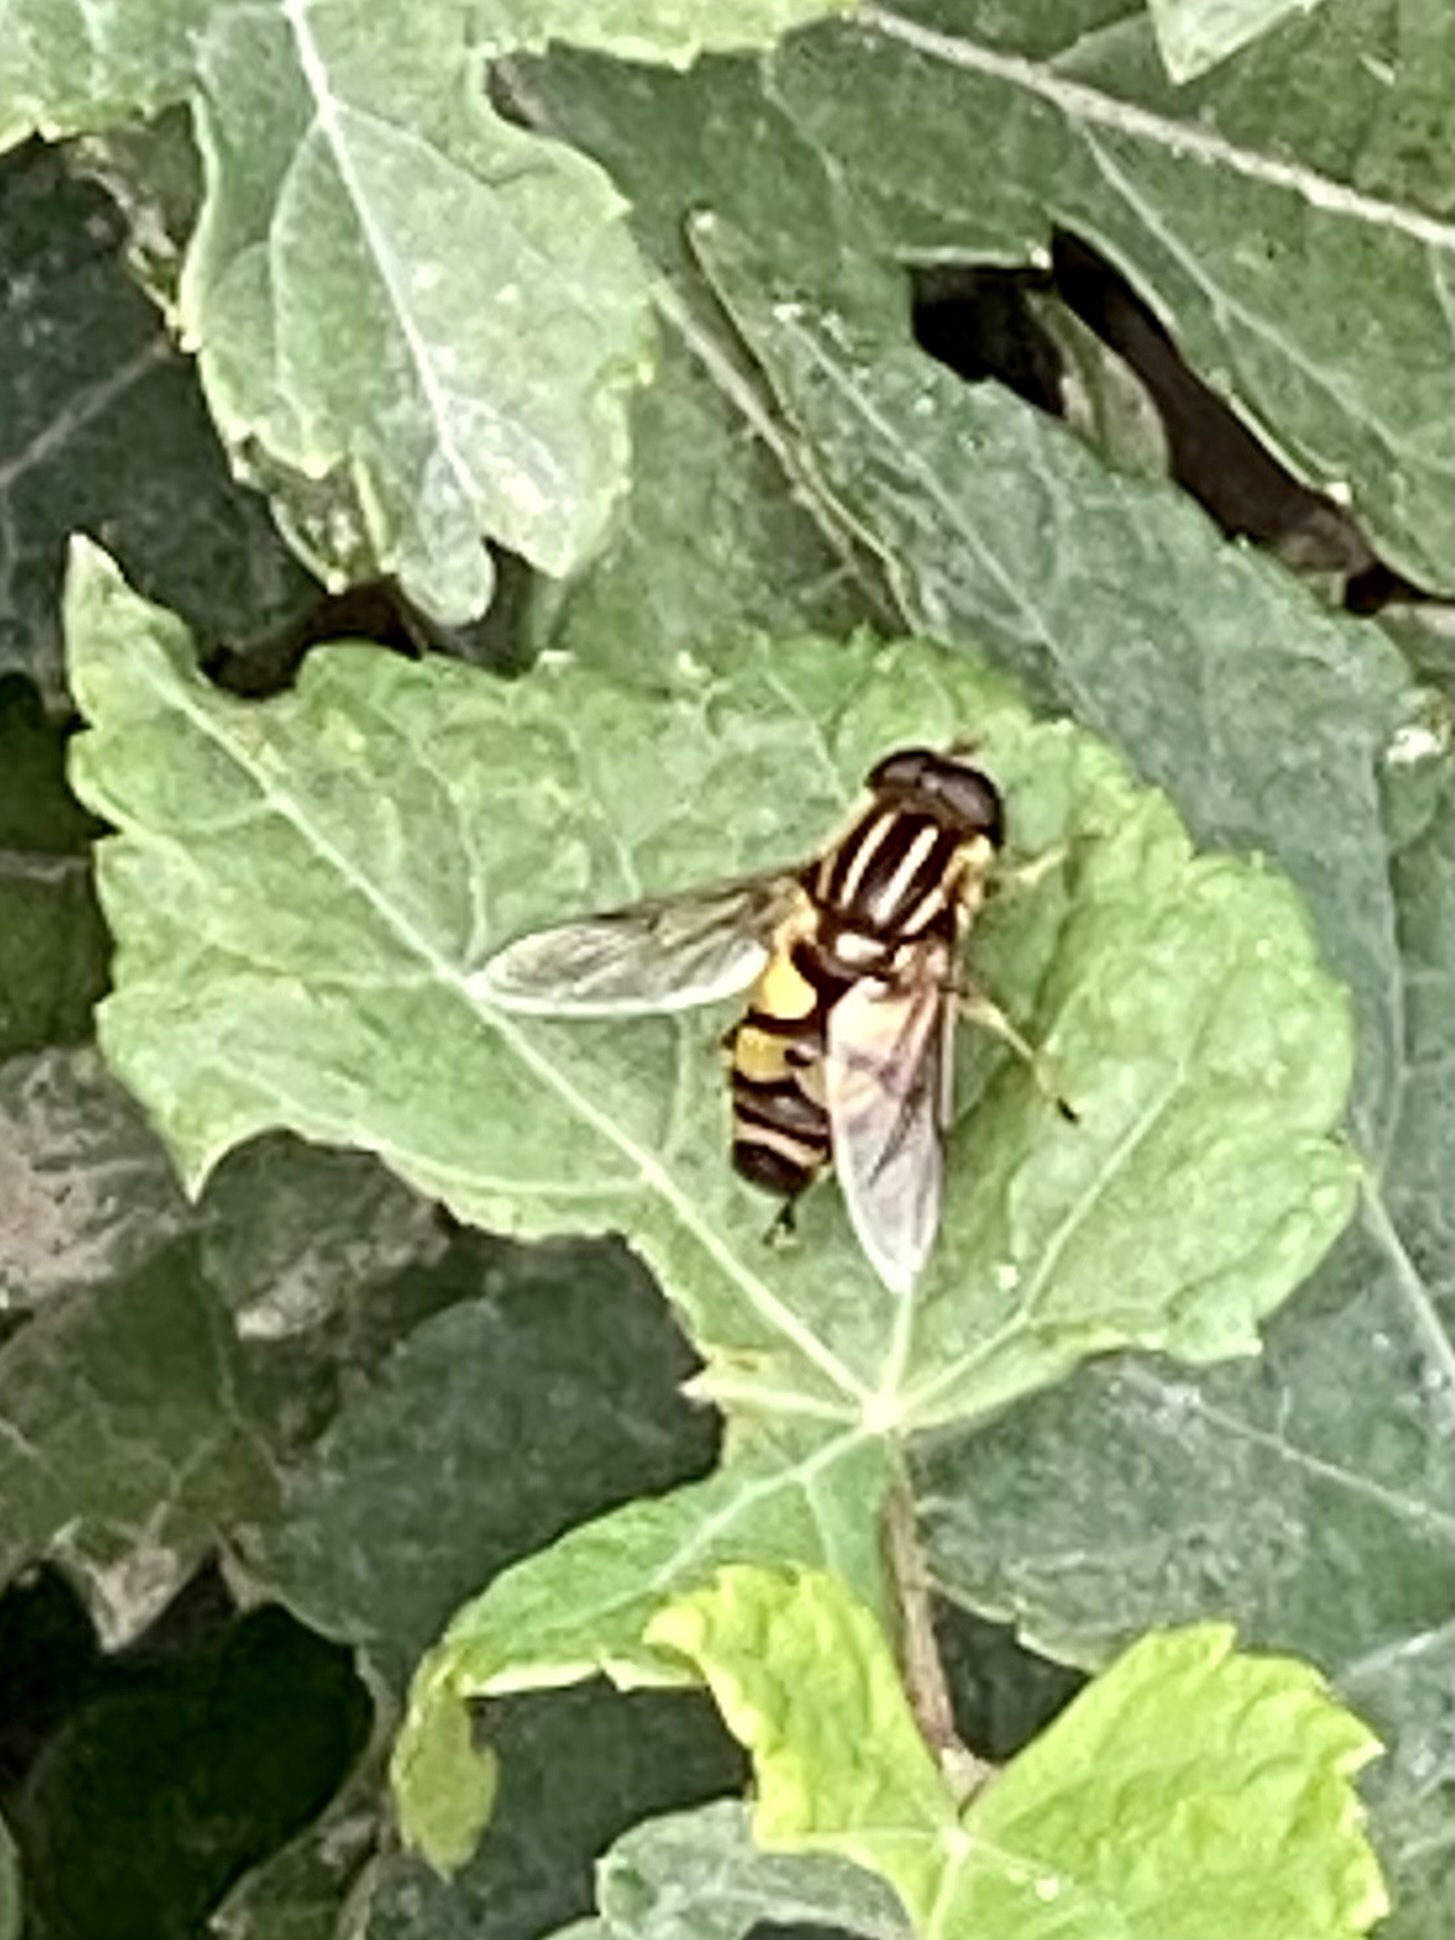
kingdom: Animalia
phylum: Arthropoda
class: Insecta
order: Diptera
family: Syrphidae
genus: Helophilus
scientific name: Helophilus fasciatus
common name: Narrow-headed marsh fly
